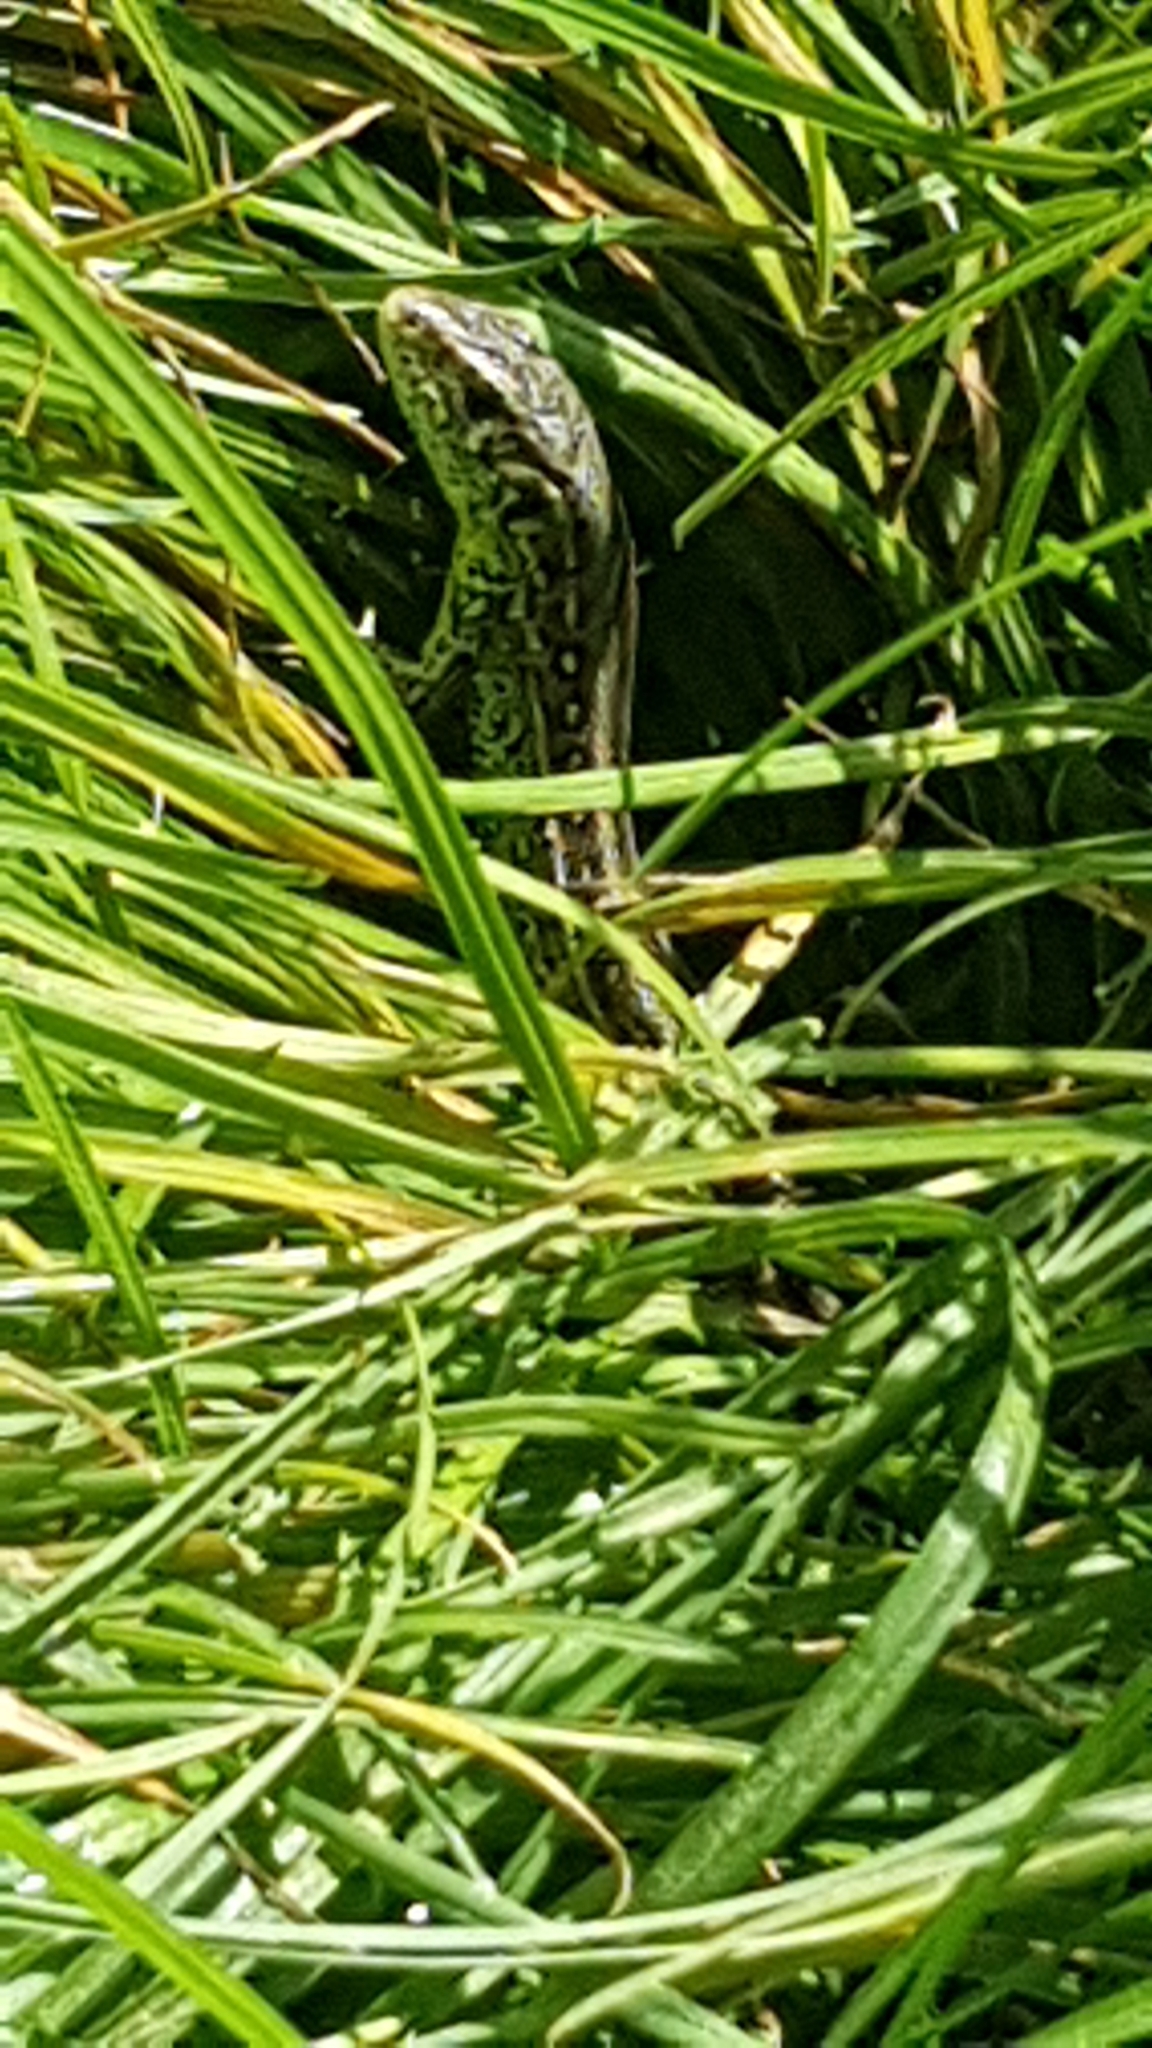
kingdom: Animalia
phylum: Chordata
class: Squamata
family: Lacertidae
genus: Lacerta
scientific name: Lacerta agilis
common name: Sand lizard
